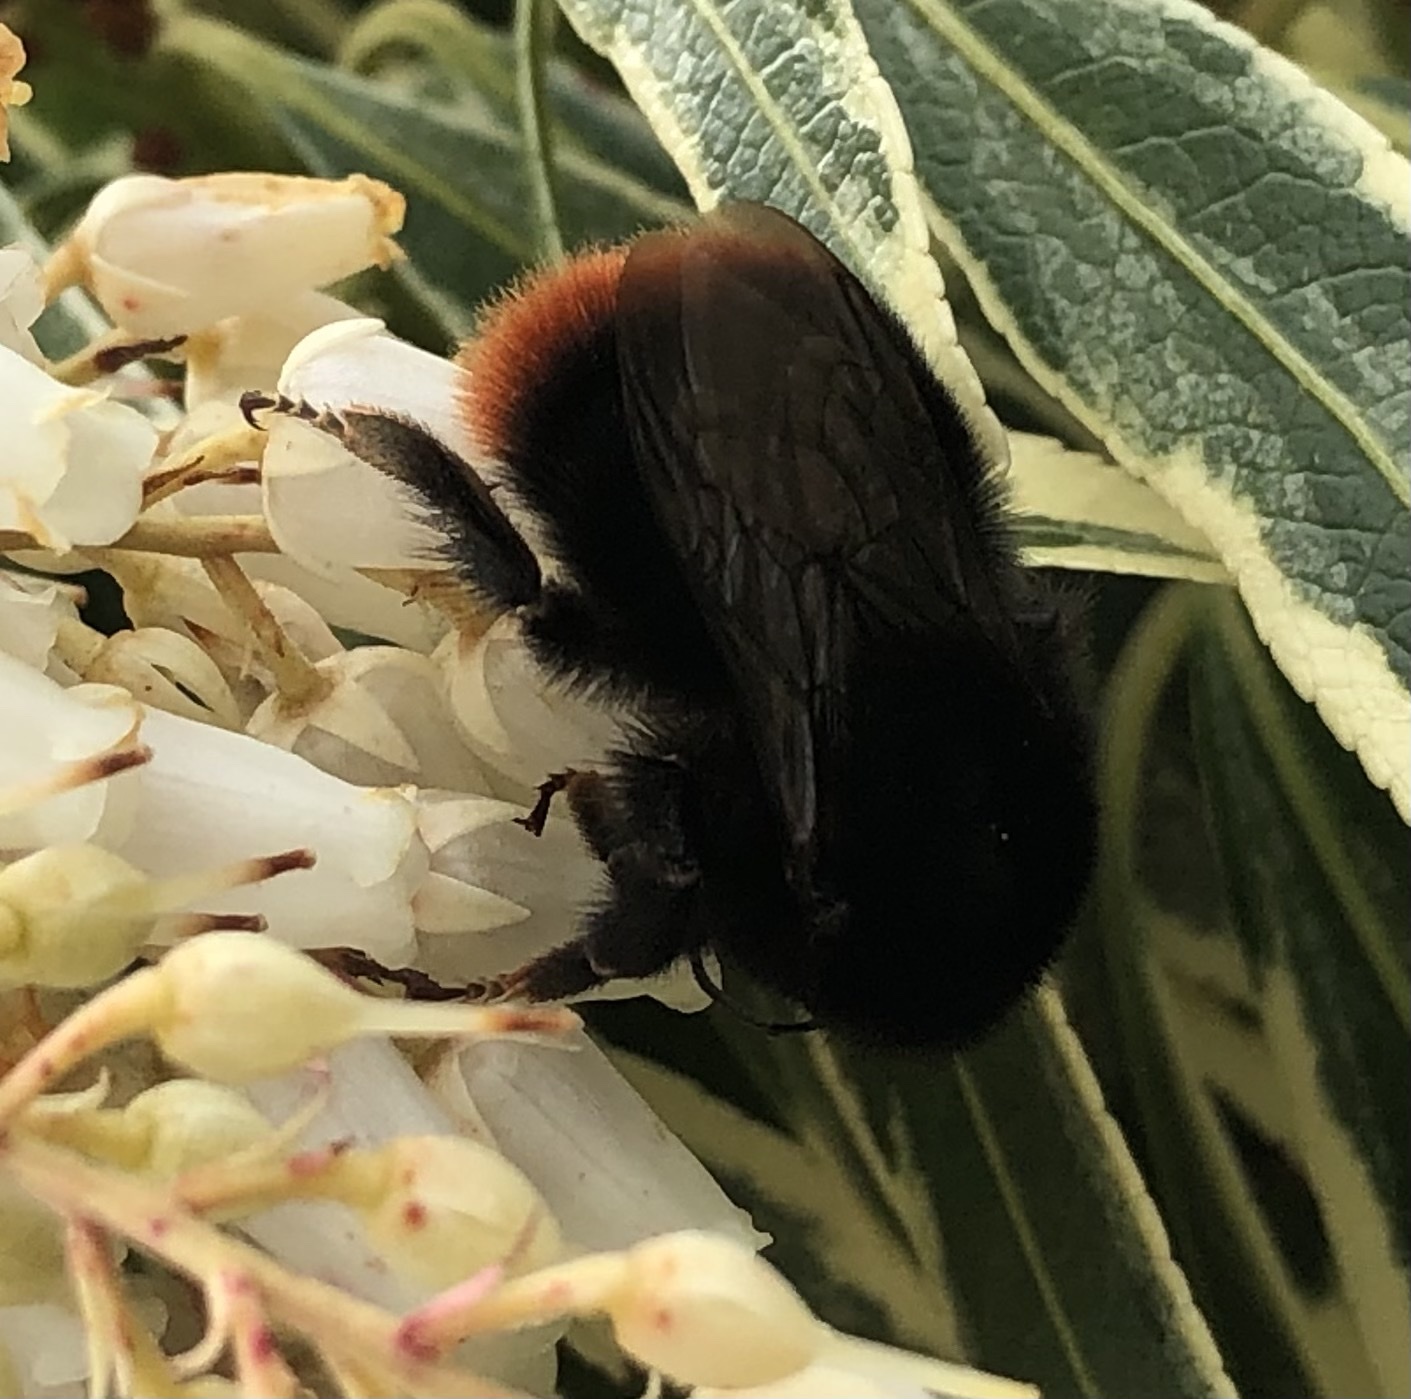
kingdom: Animalia
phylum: Arthropoda
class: Insecta
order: Hymenoptera
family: Apidae
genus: Bombus
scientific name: Bombus lapidarius
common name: Large red-tailed humble-bee
